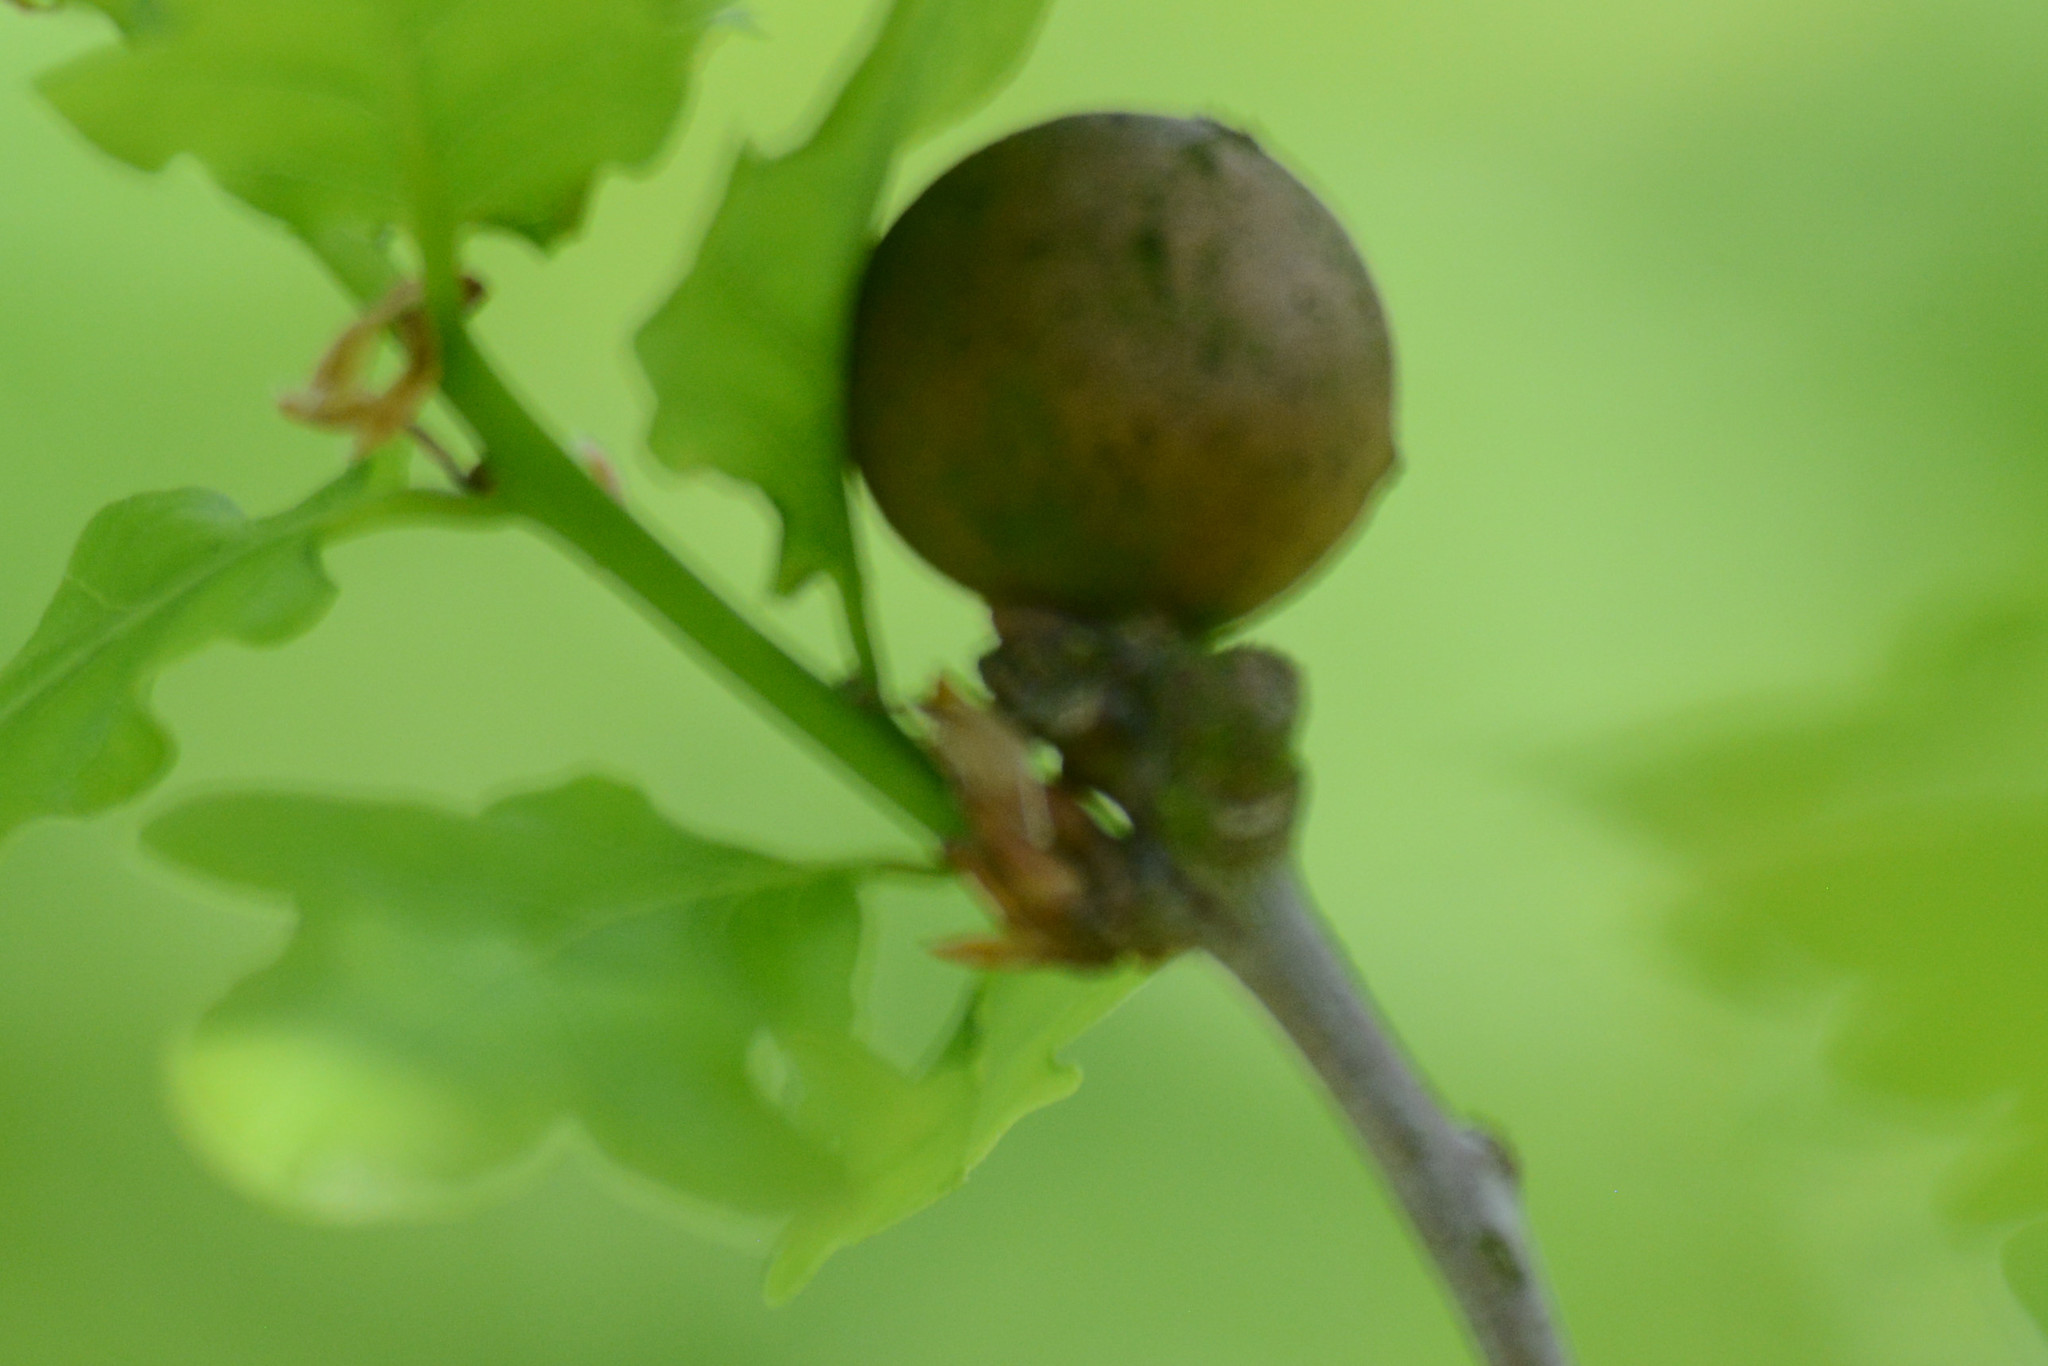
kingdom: Animalia
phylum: Arthropoda
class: Insecta
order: Hymenoptera
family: Cynipidae
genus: Andricus
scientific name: Andricus kollari
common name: Marble gall
